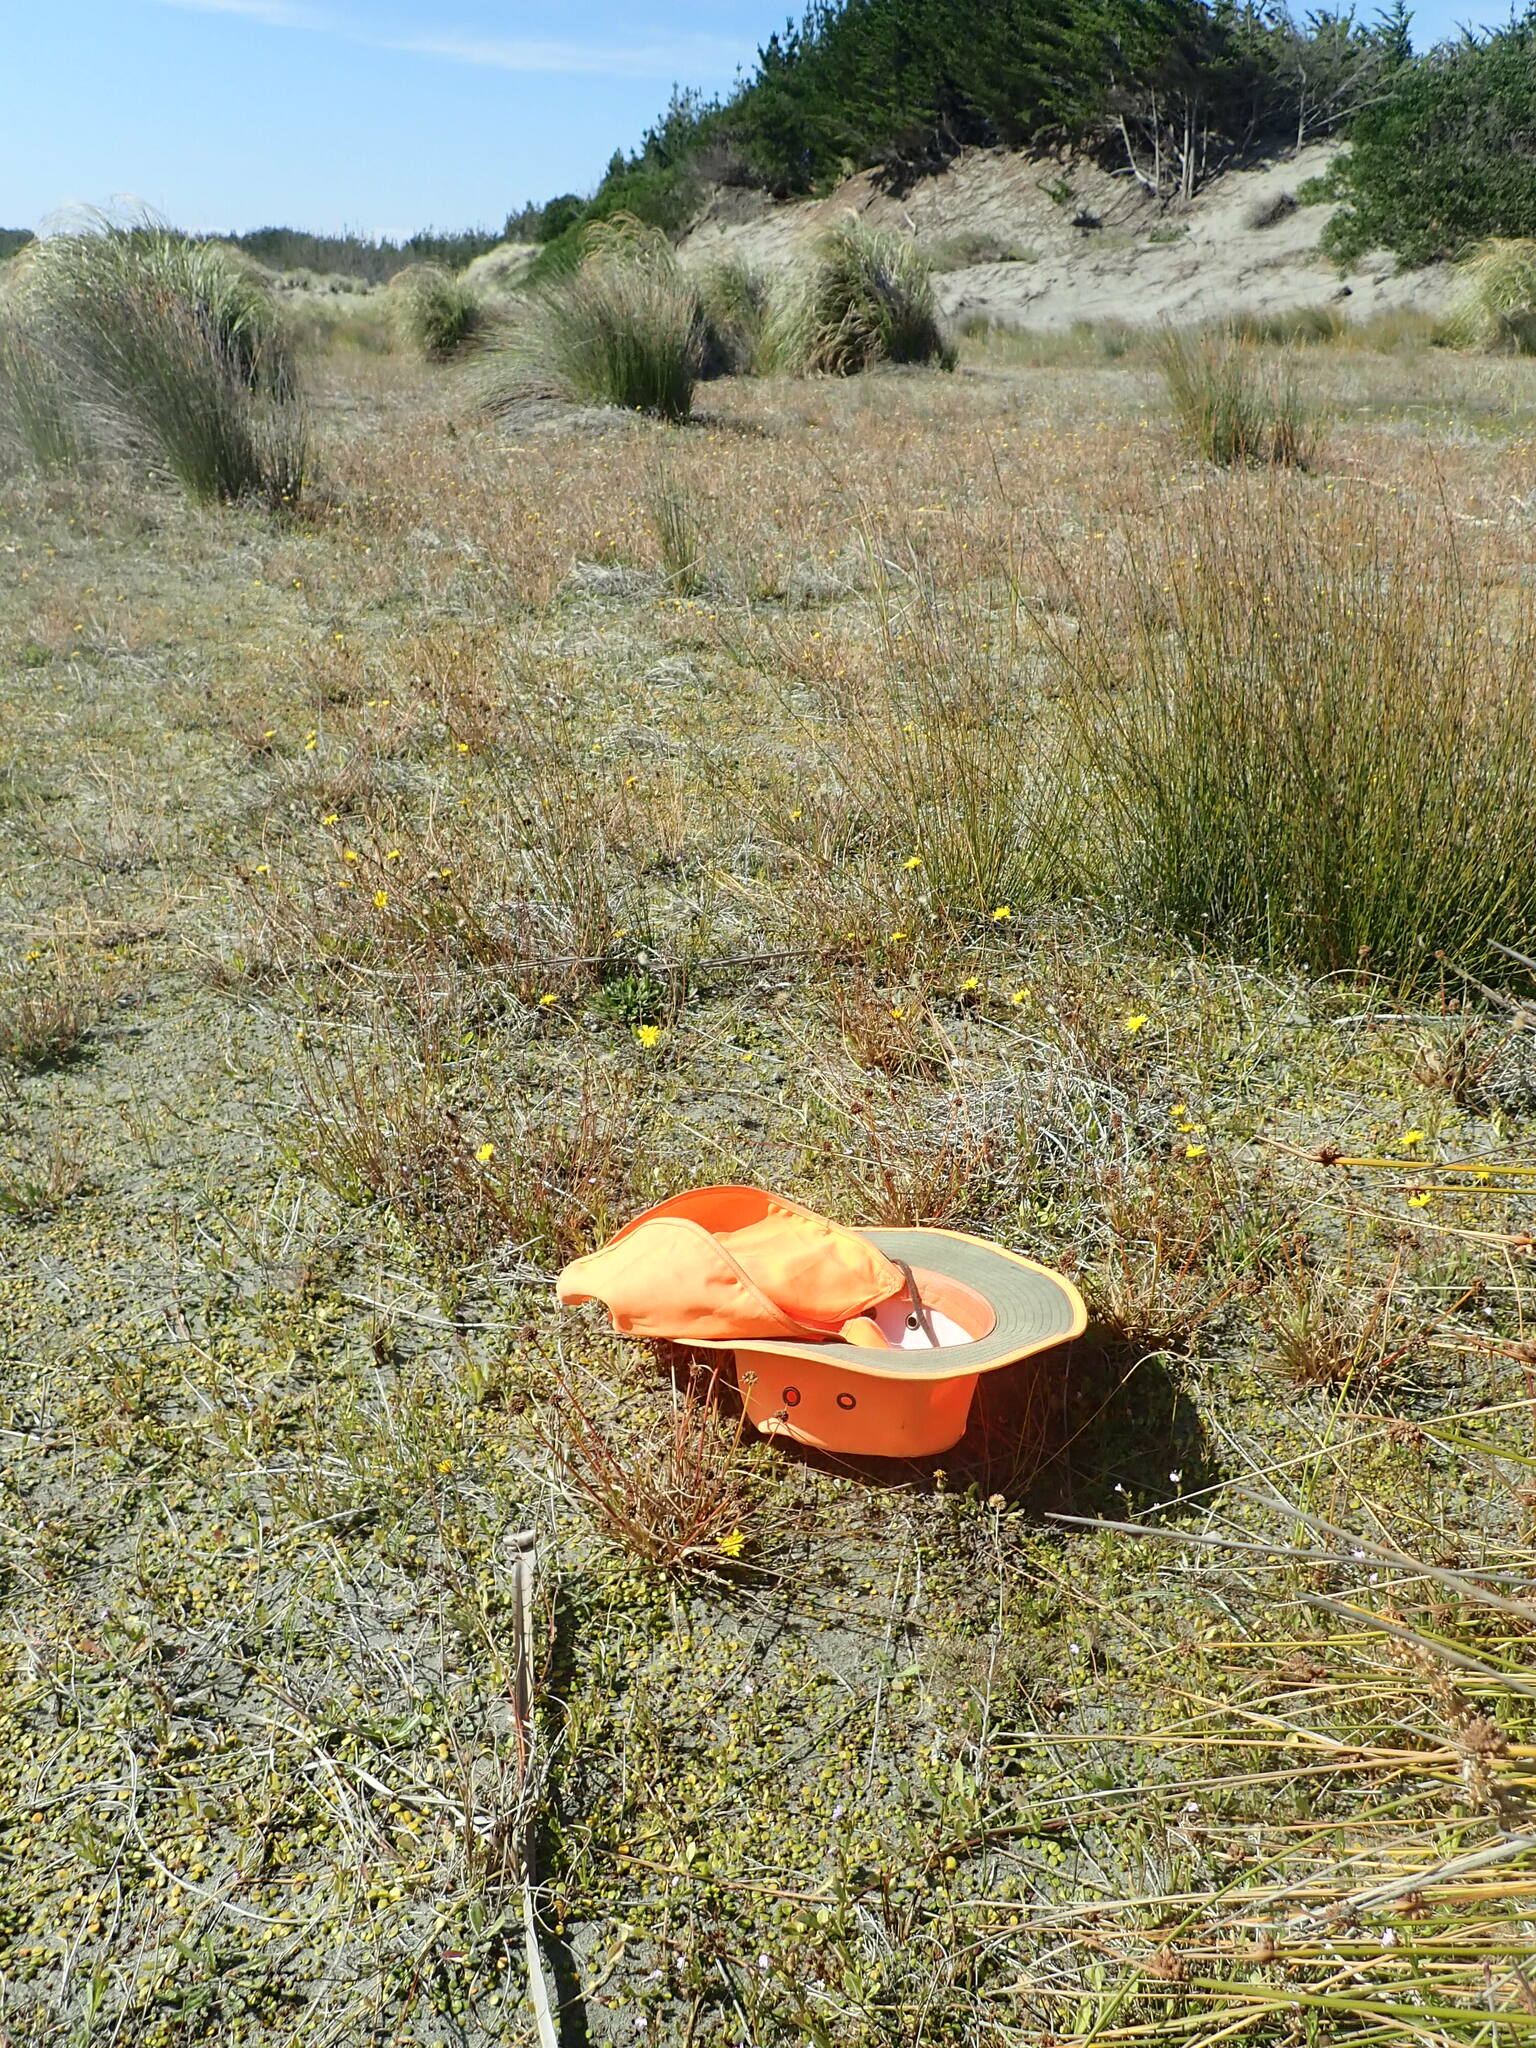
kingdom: Plantae
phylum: Tracheophyta
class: Liliopsida
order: Poales
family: Juncaceae
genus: Juncus
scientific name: Juncus caespiticius
